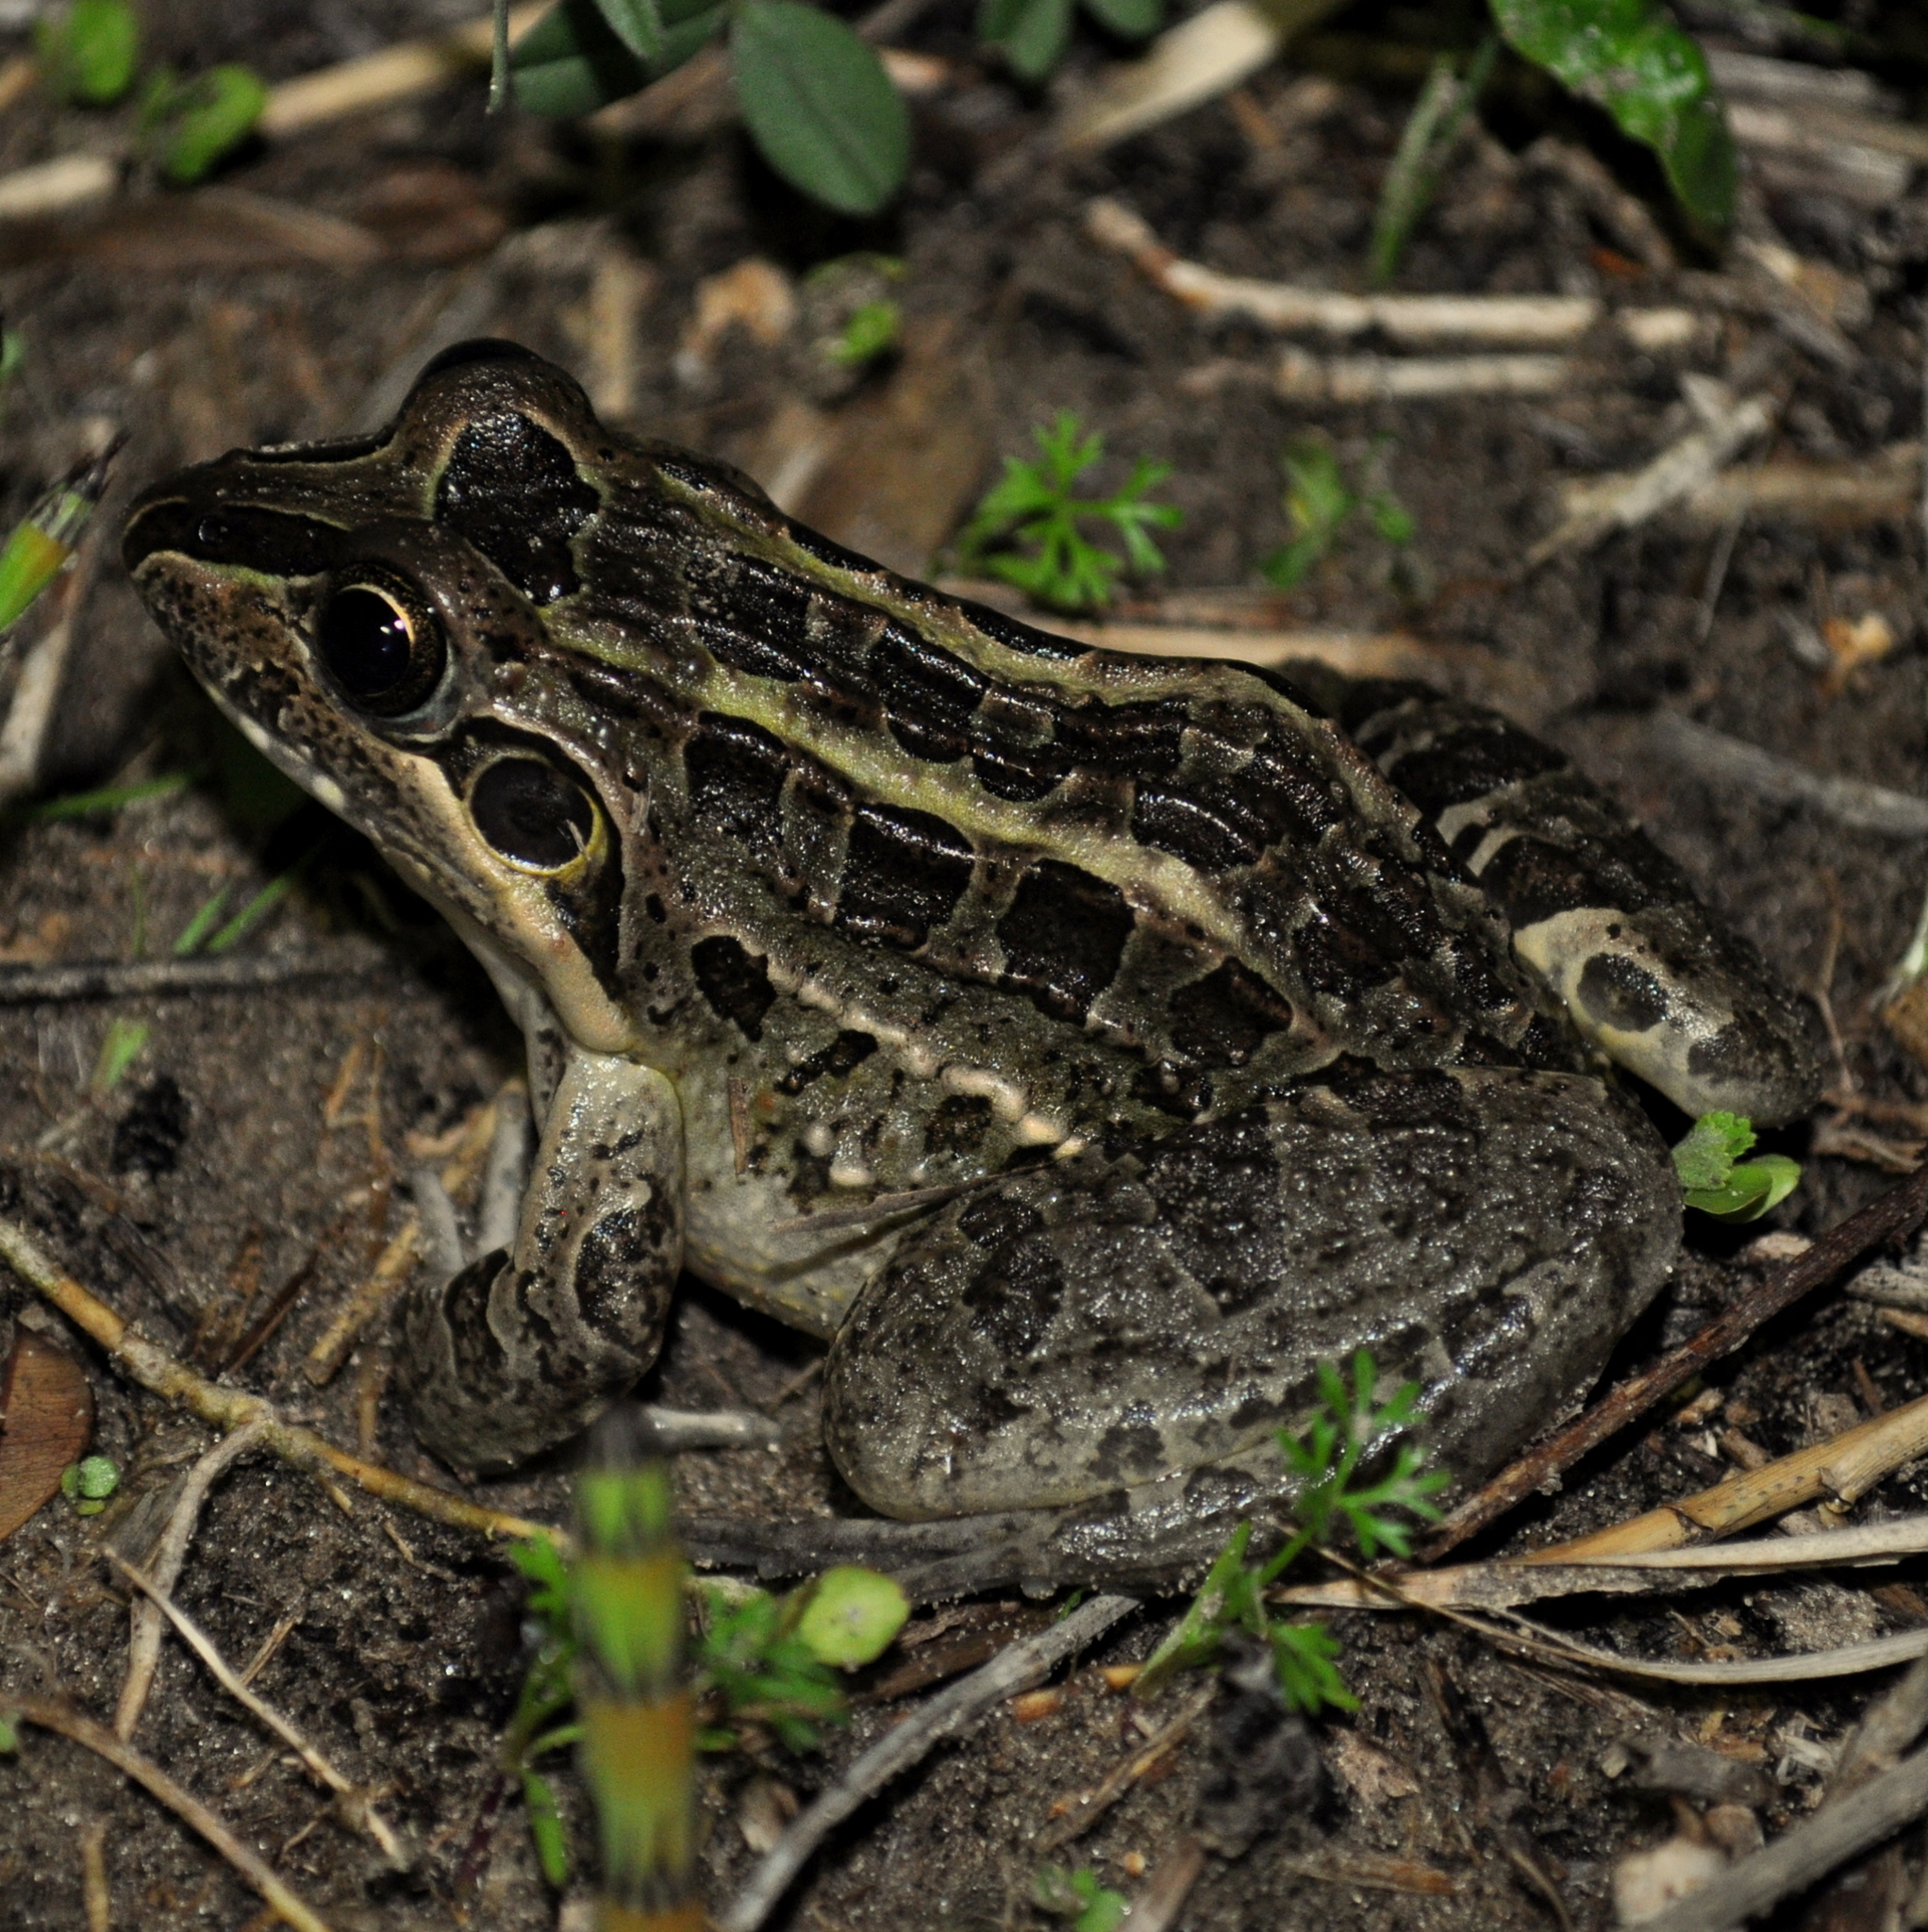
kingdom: Animalia
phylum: Chordata
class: Amphibia
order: Anura
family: Leptodactylidae
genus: Leptodactylus
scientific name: Leptodactylus luctator
